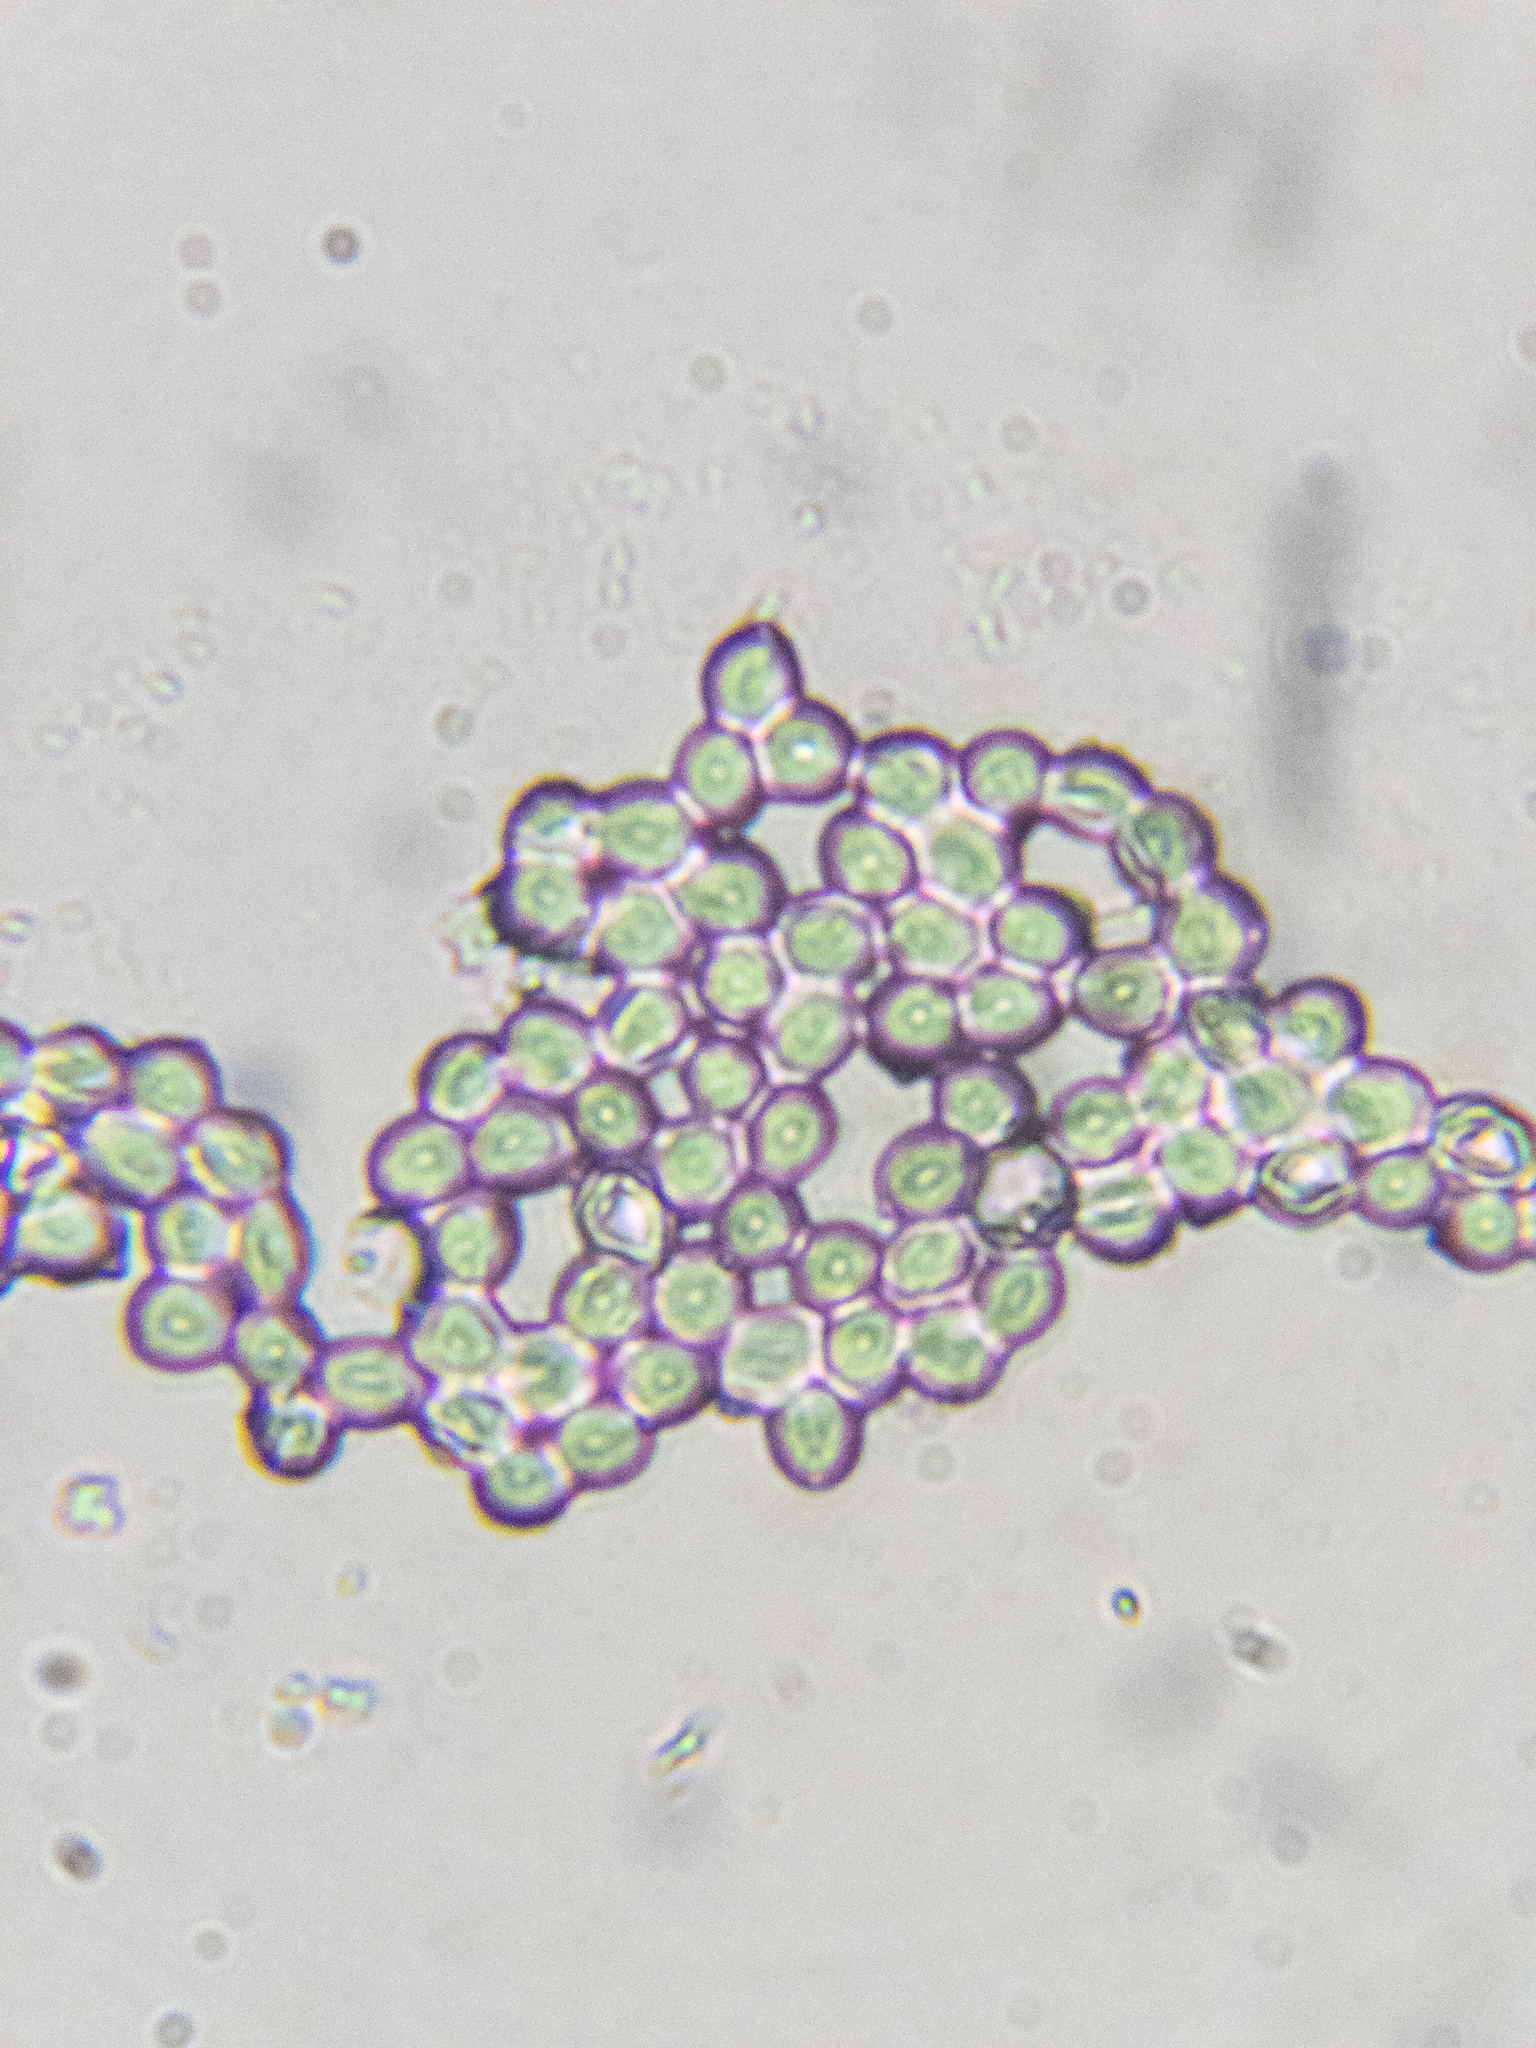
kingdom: Fungi
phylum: Basidiomycota
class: Agaricomycetes
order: Cantharellales
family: Hydnaceae
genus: Clavulina
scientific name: Clavulina coralloides
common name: Crested coral
